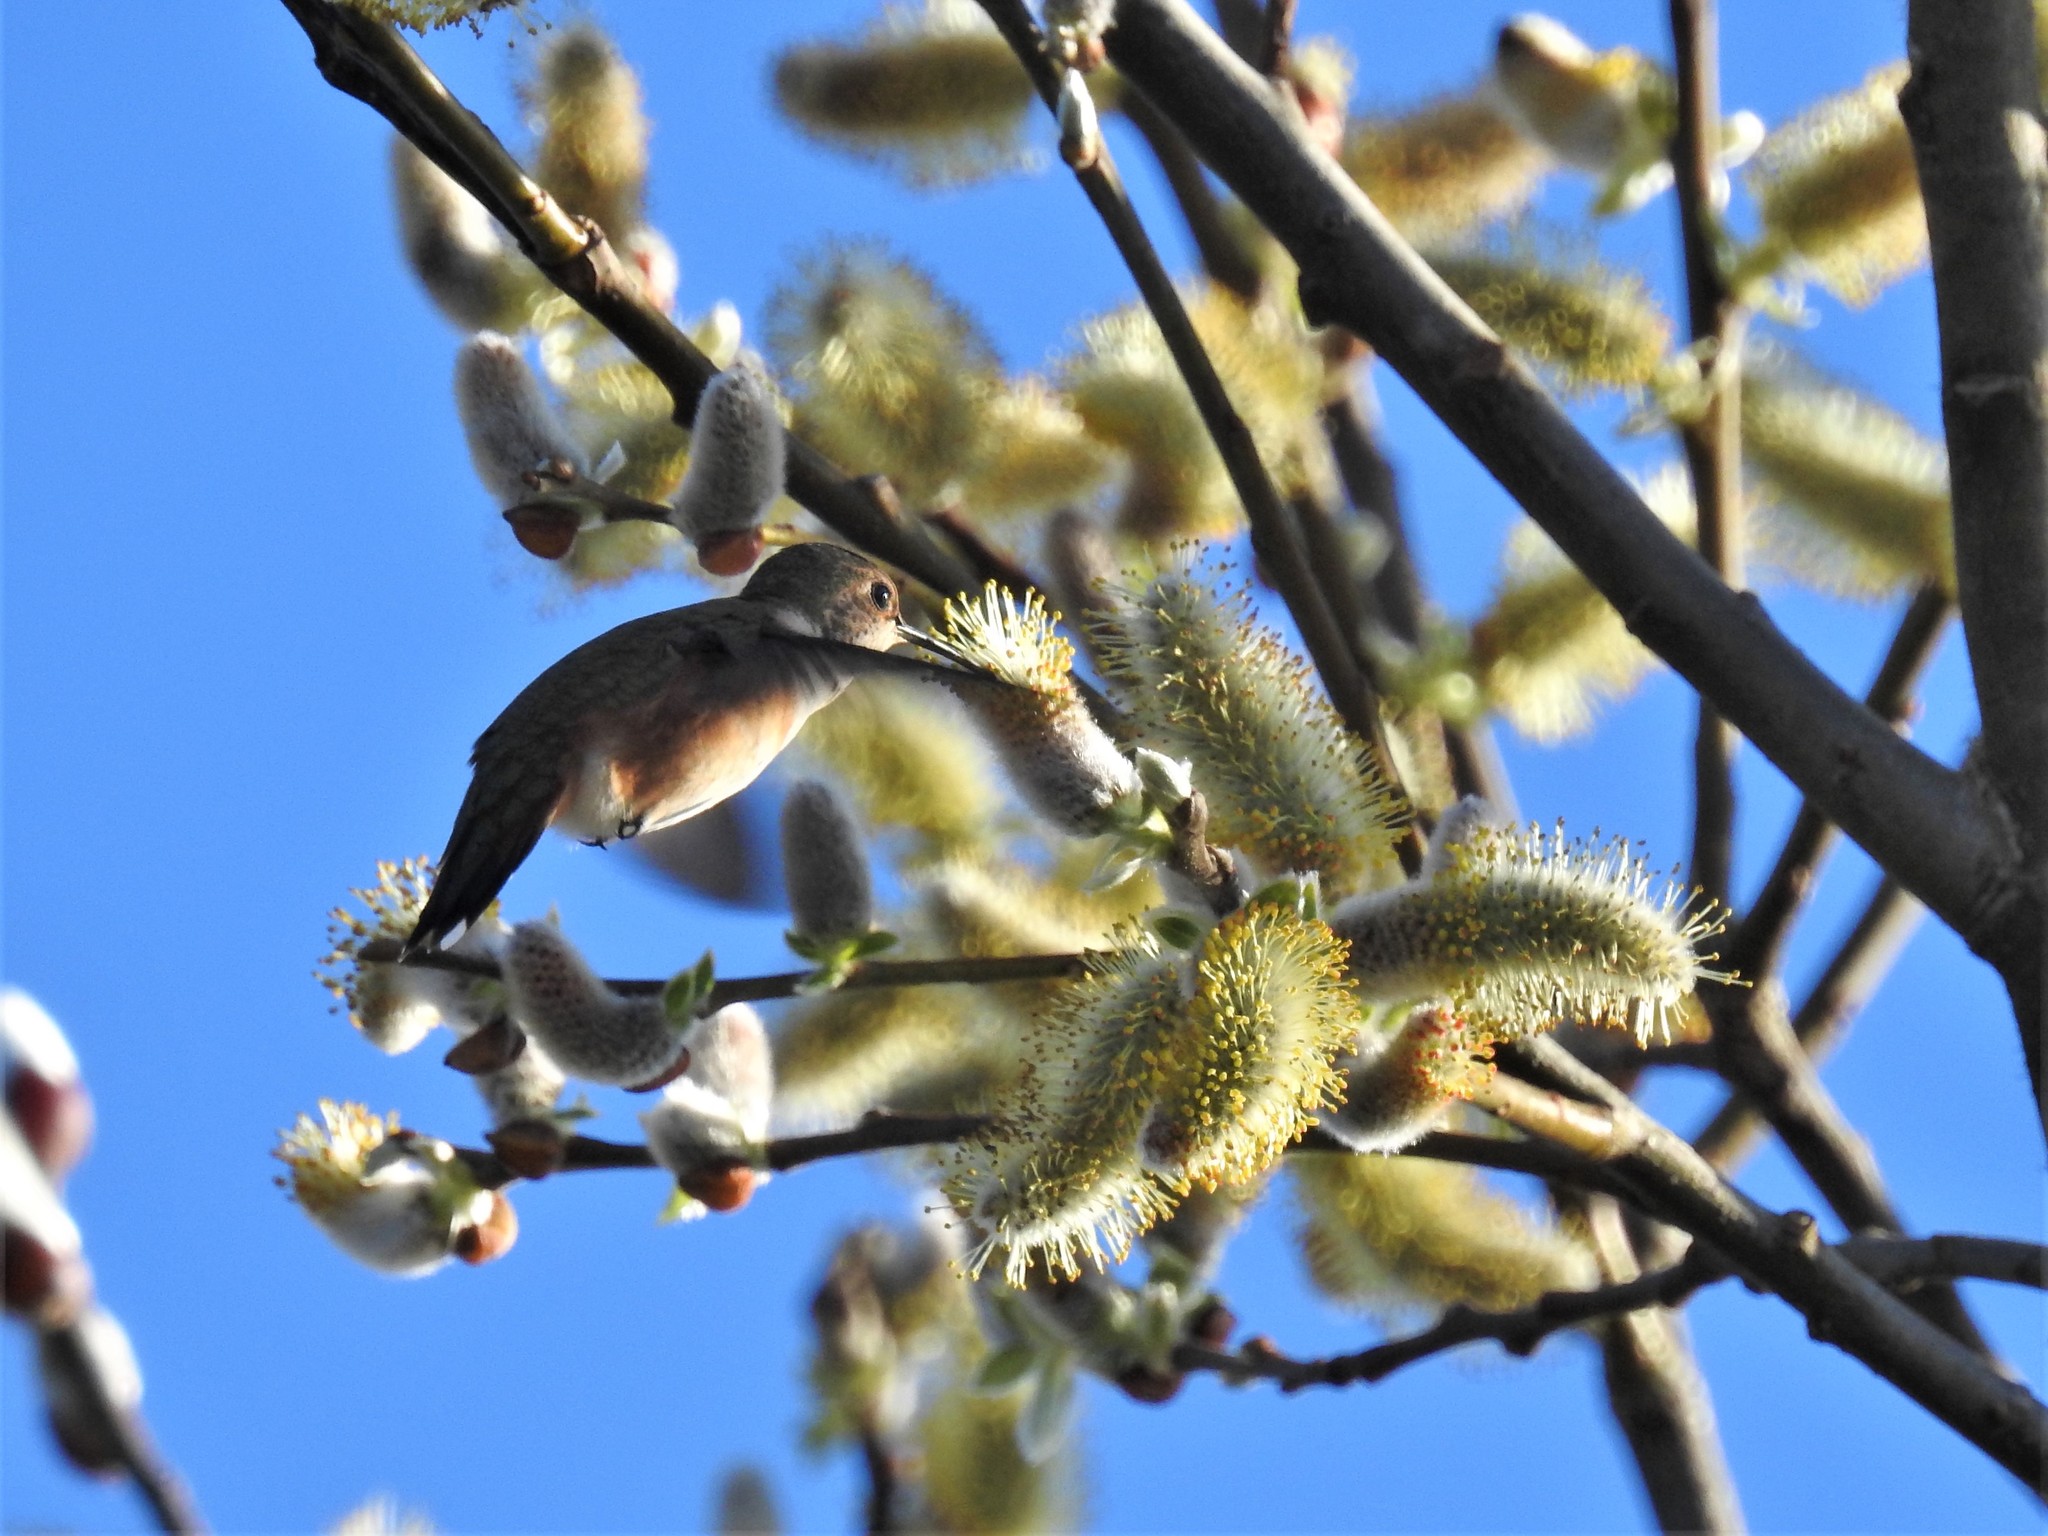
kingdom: Animalia
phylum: Chordata
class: Aves
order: Apodiformes
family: Trochilidae
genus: Selasphorus
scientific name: Selasphorus rufus
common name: Rufous hummingbird
